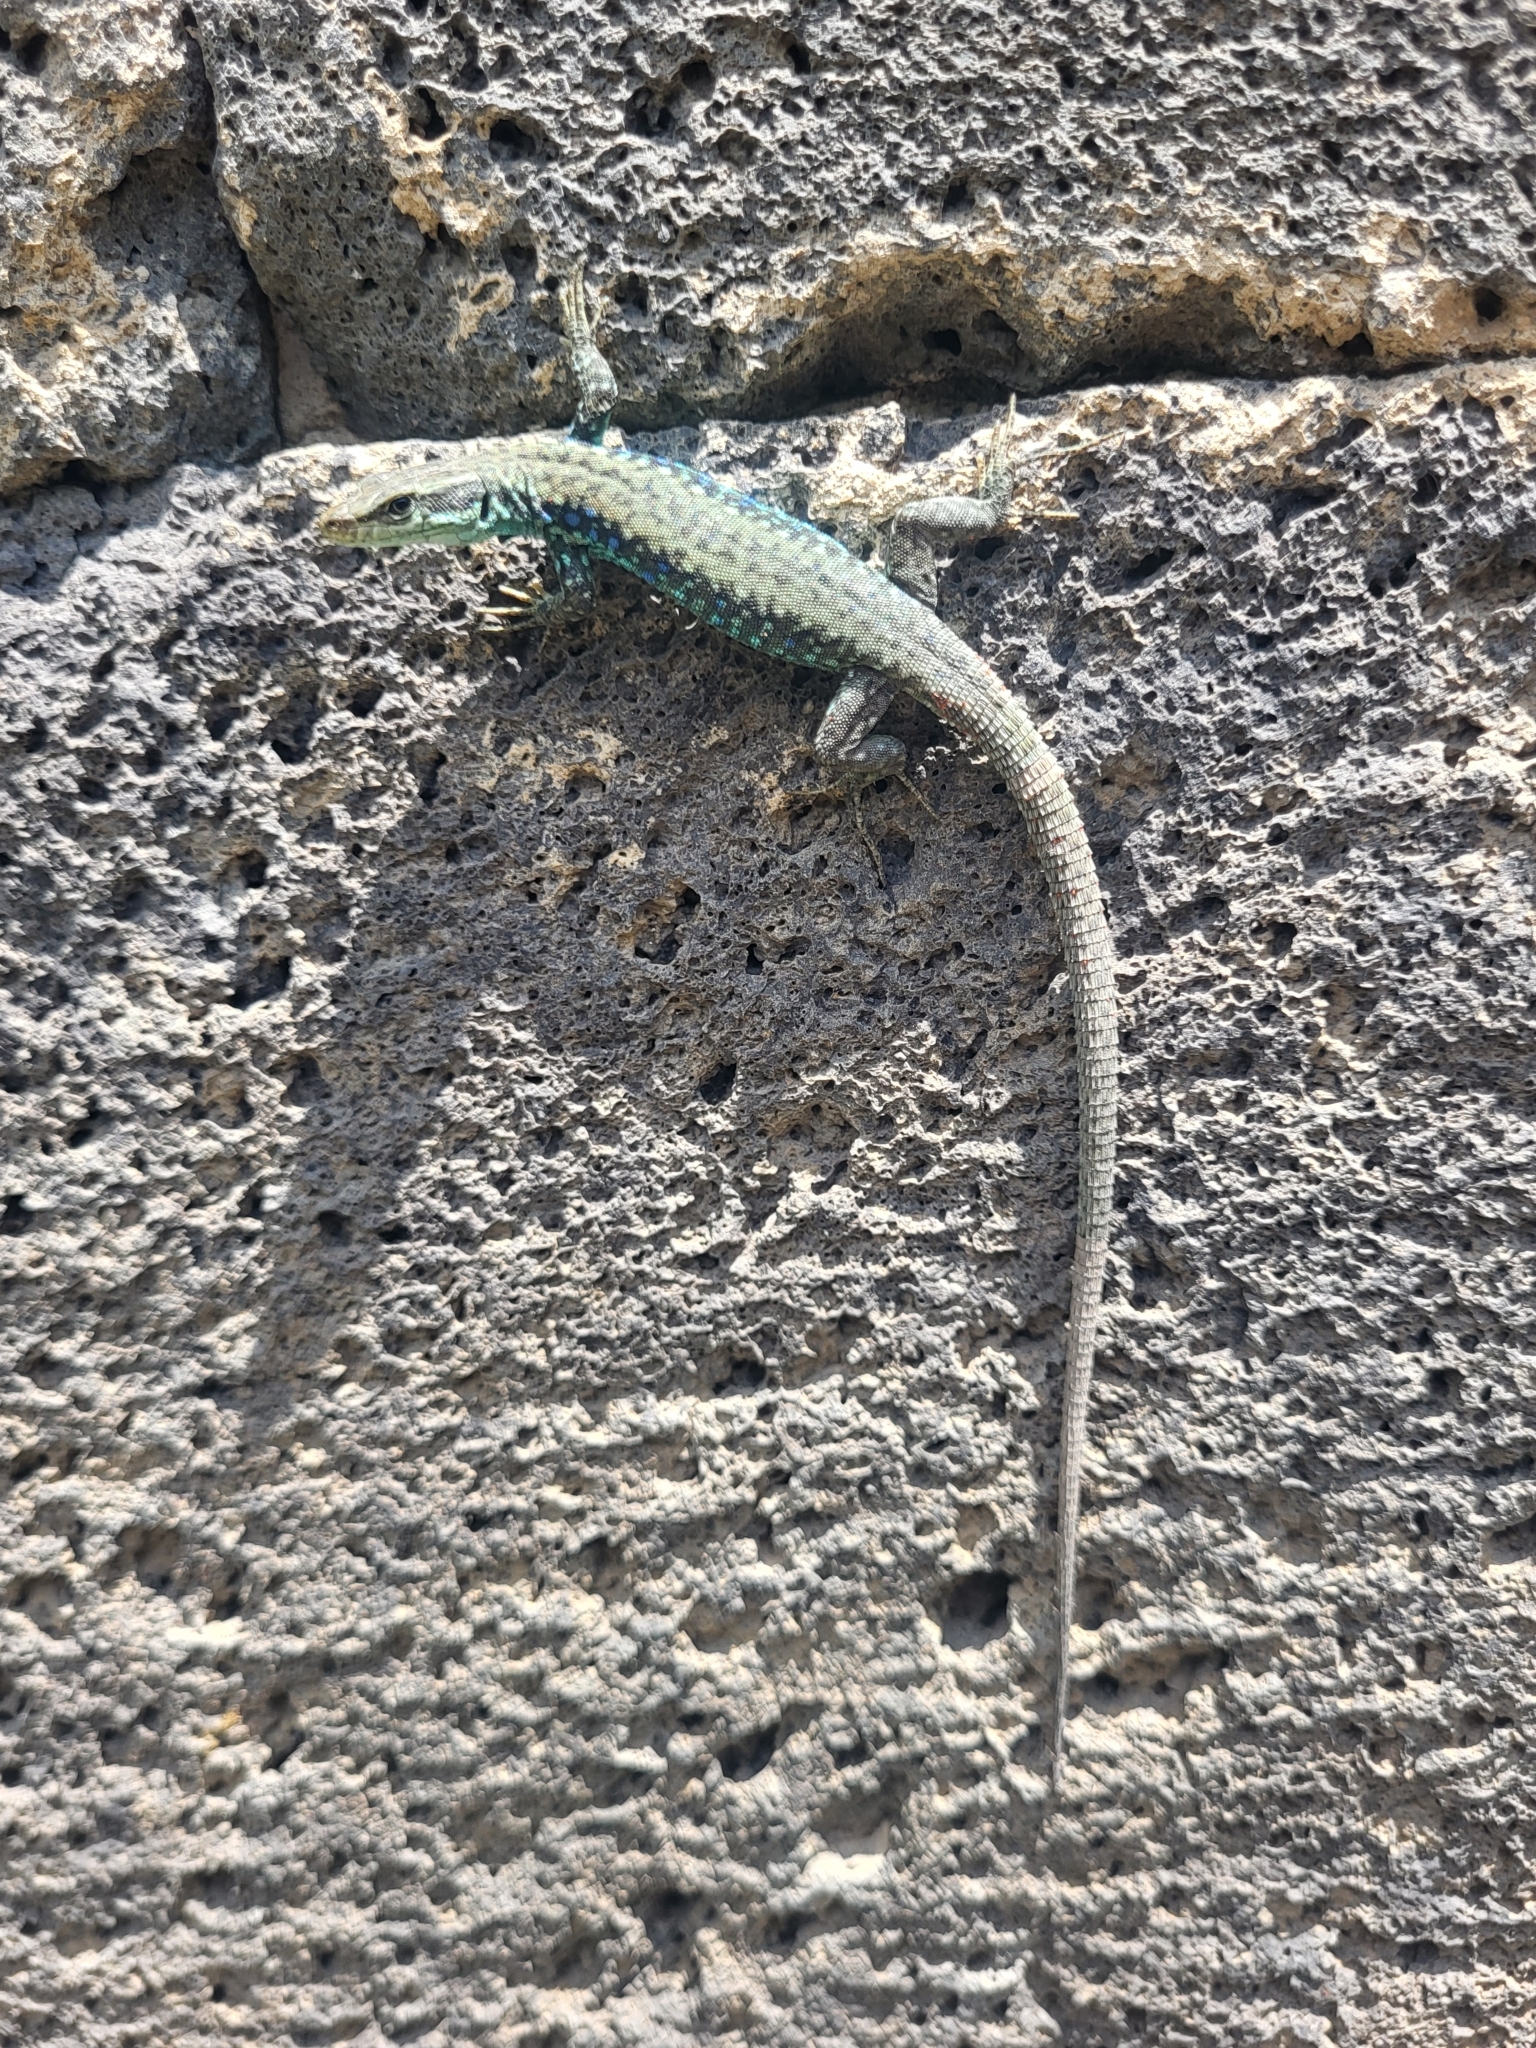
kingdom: Animalia
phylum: Chordata
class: Squamata
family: Lacertidae
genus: Darevskia
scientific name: Darevskia raddei
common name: Radde's lizard
